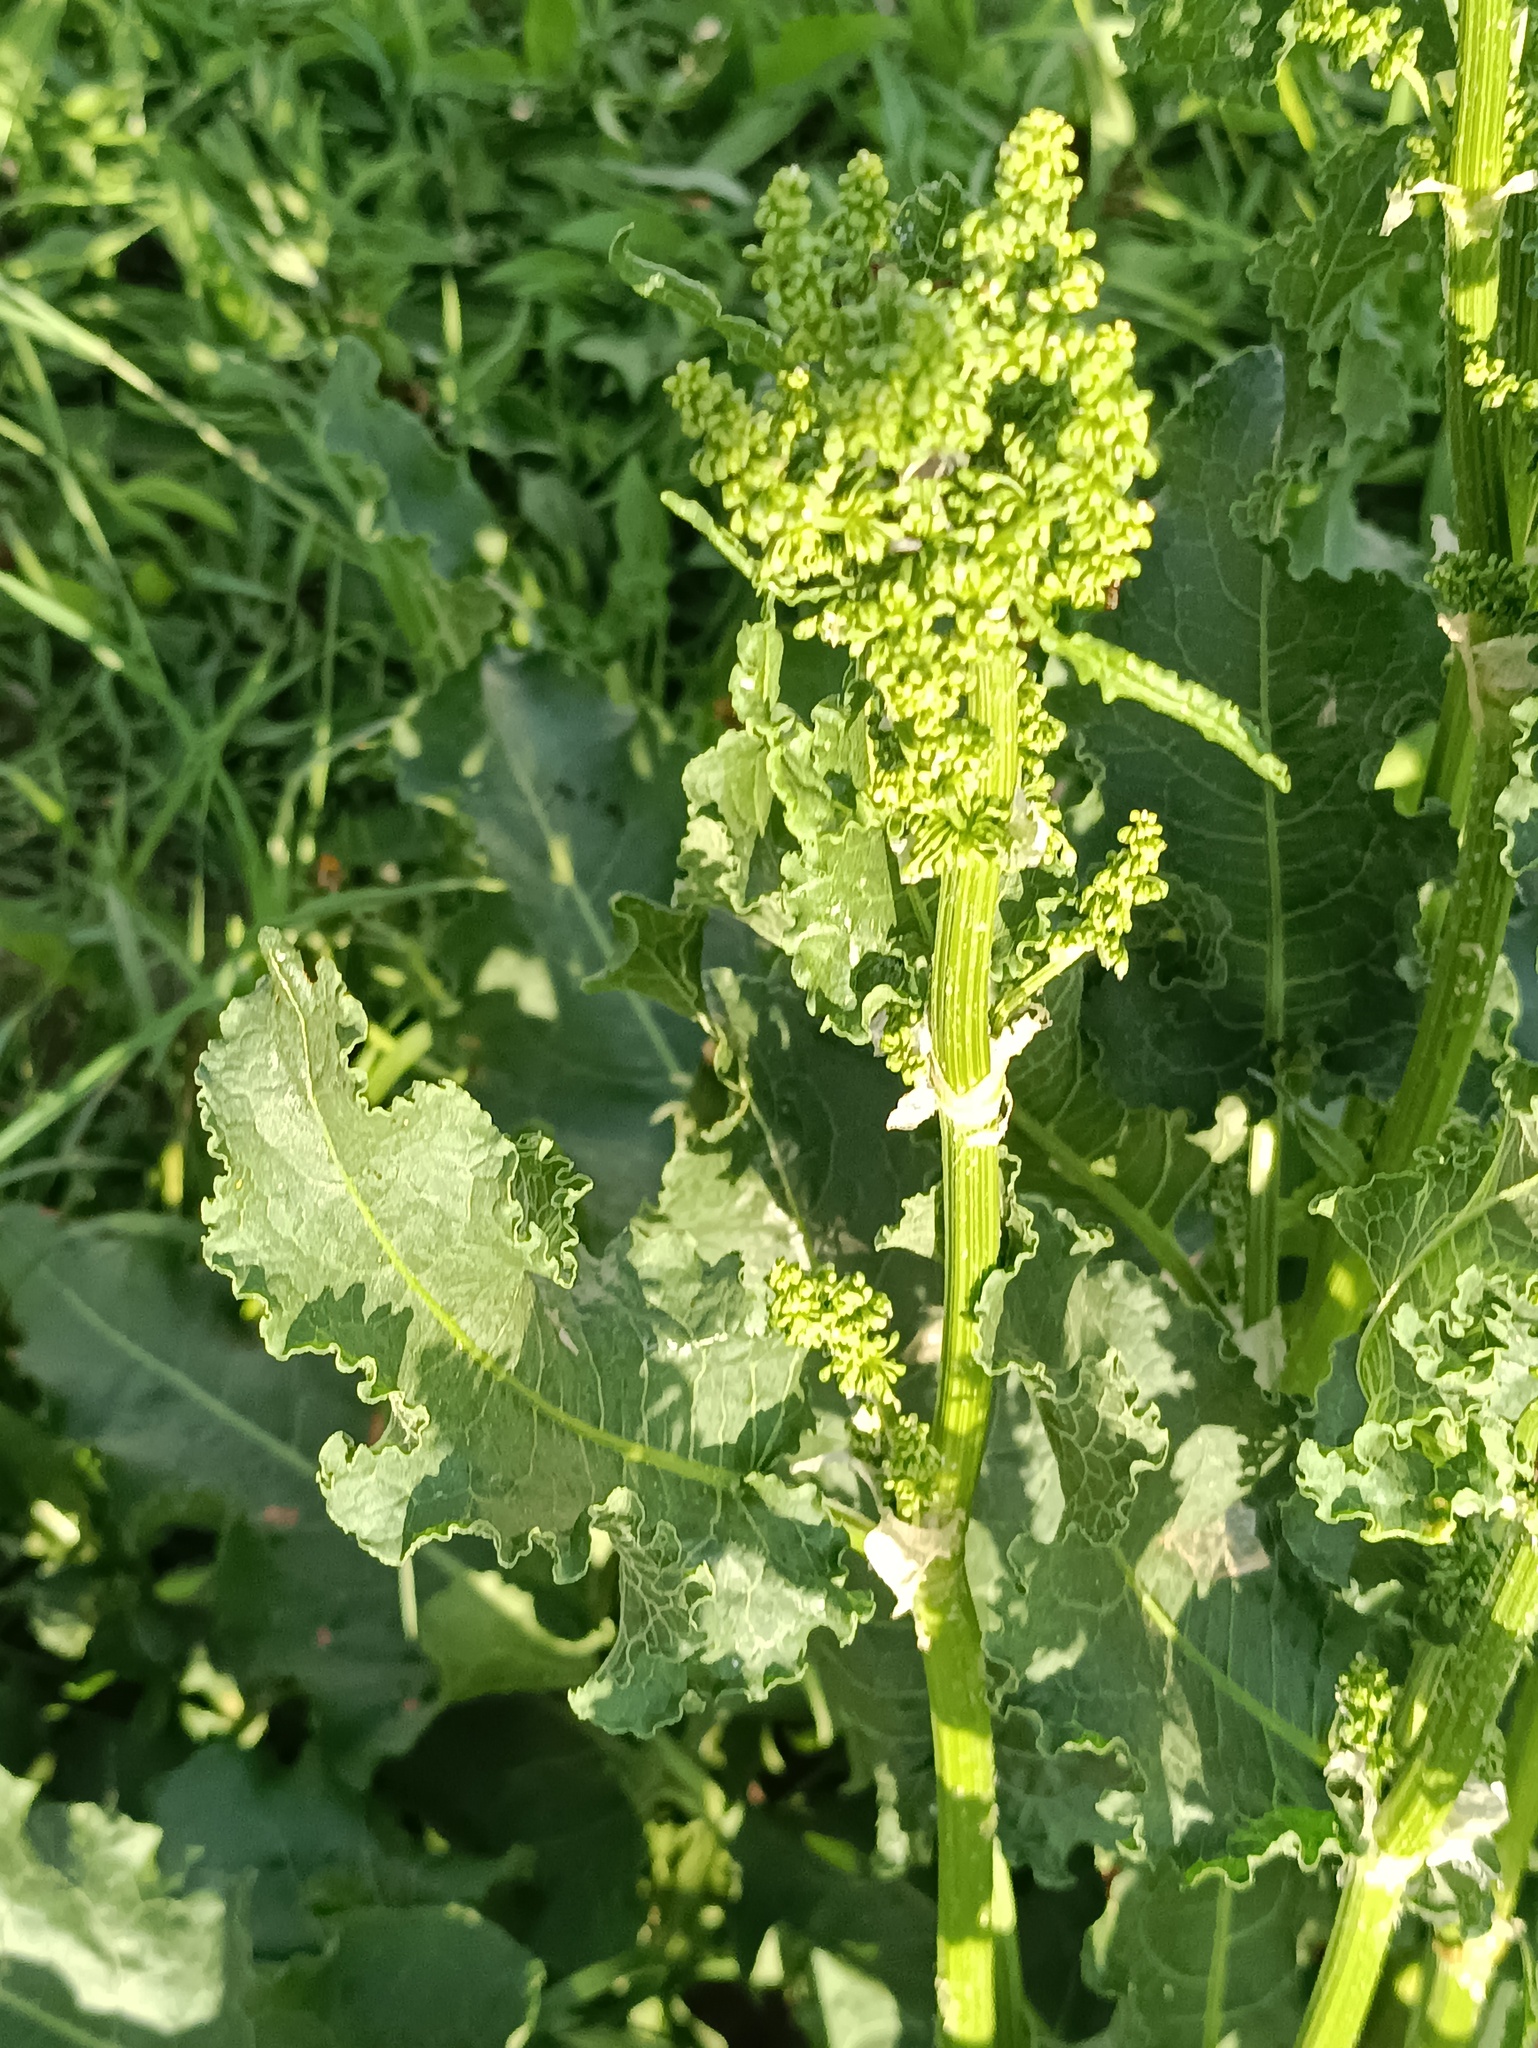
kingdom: Plantae
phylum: Tracheophyta
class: Magnoliopsida
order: Caryophyllales
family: Polygonaceae
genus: Rumex
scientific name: Rumex confertus
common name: Russian dock
